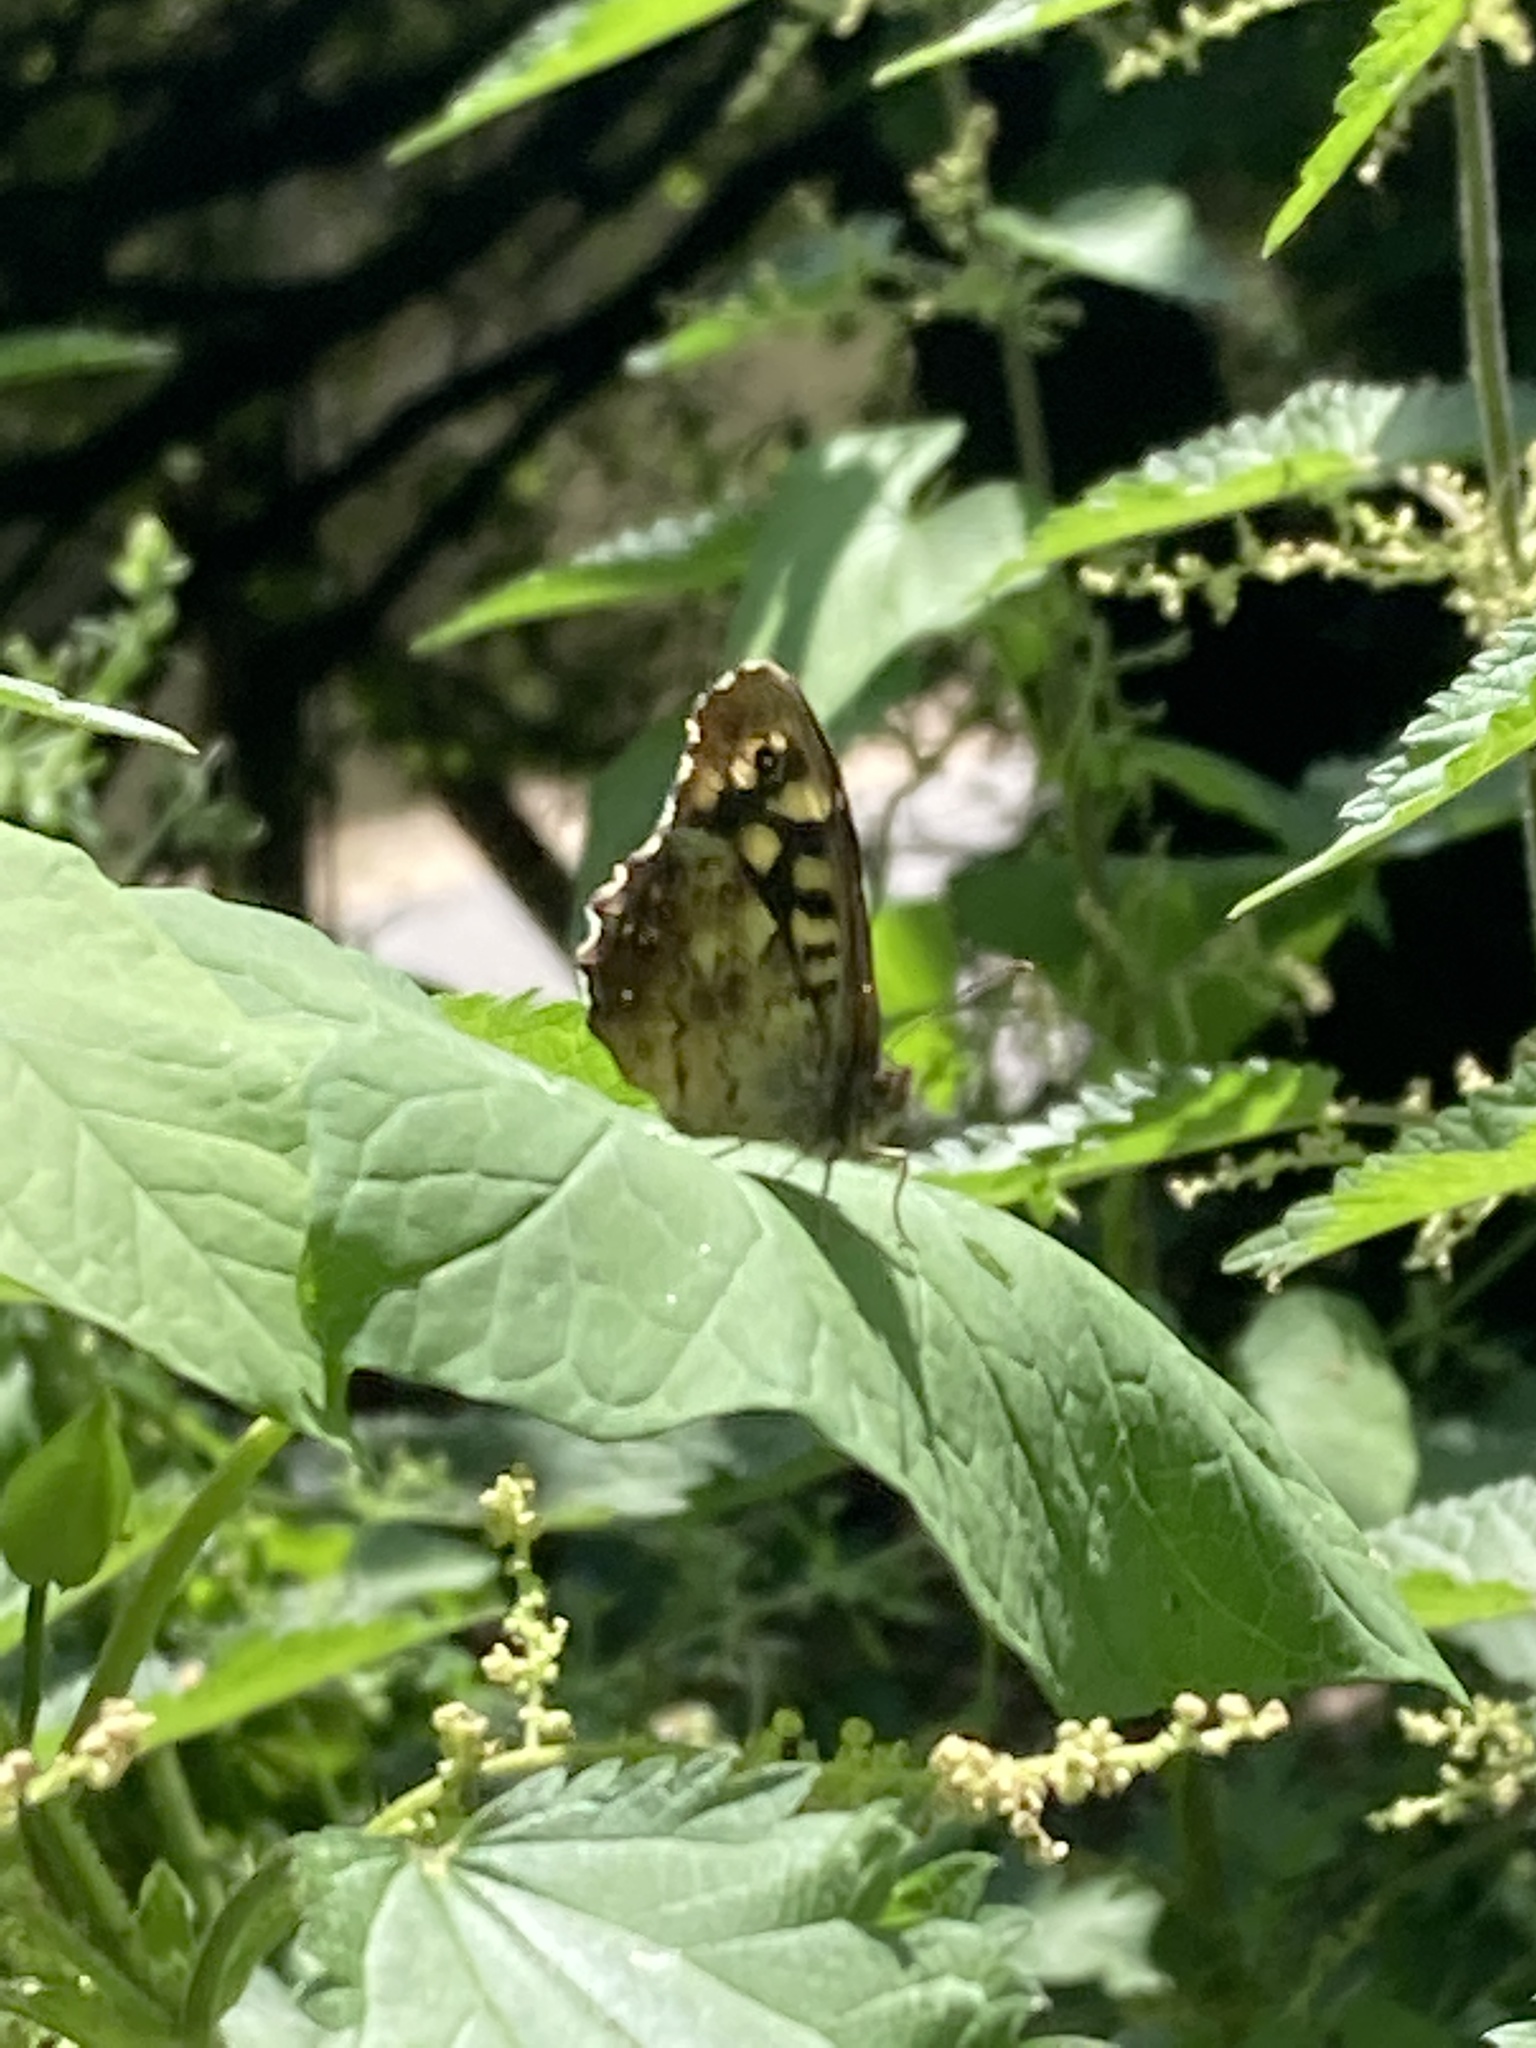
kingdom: Animalia
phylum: Arthropoda
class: Insecta
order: Lepidoptera
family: Nymphalidae
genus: Pararge
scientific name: Pararge aegeria
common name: Speckled wood
